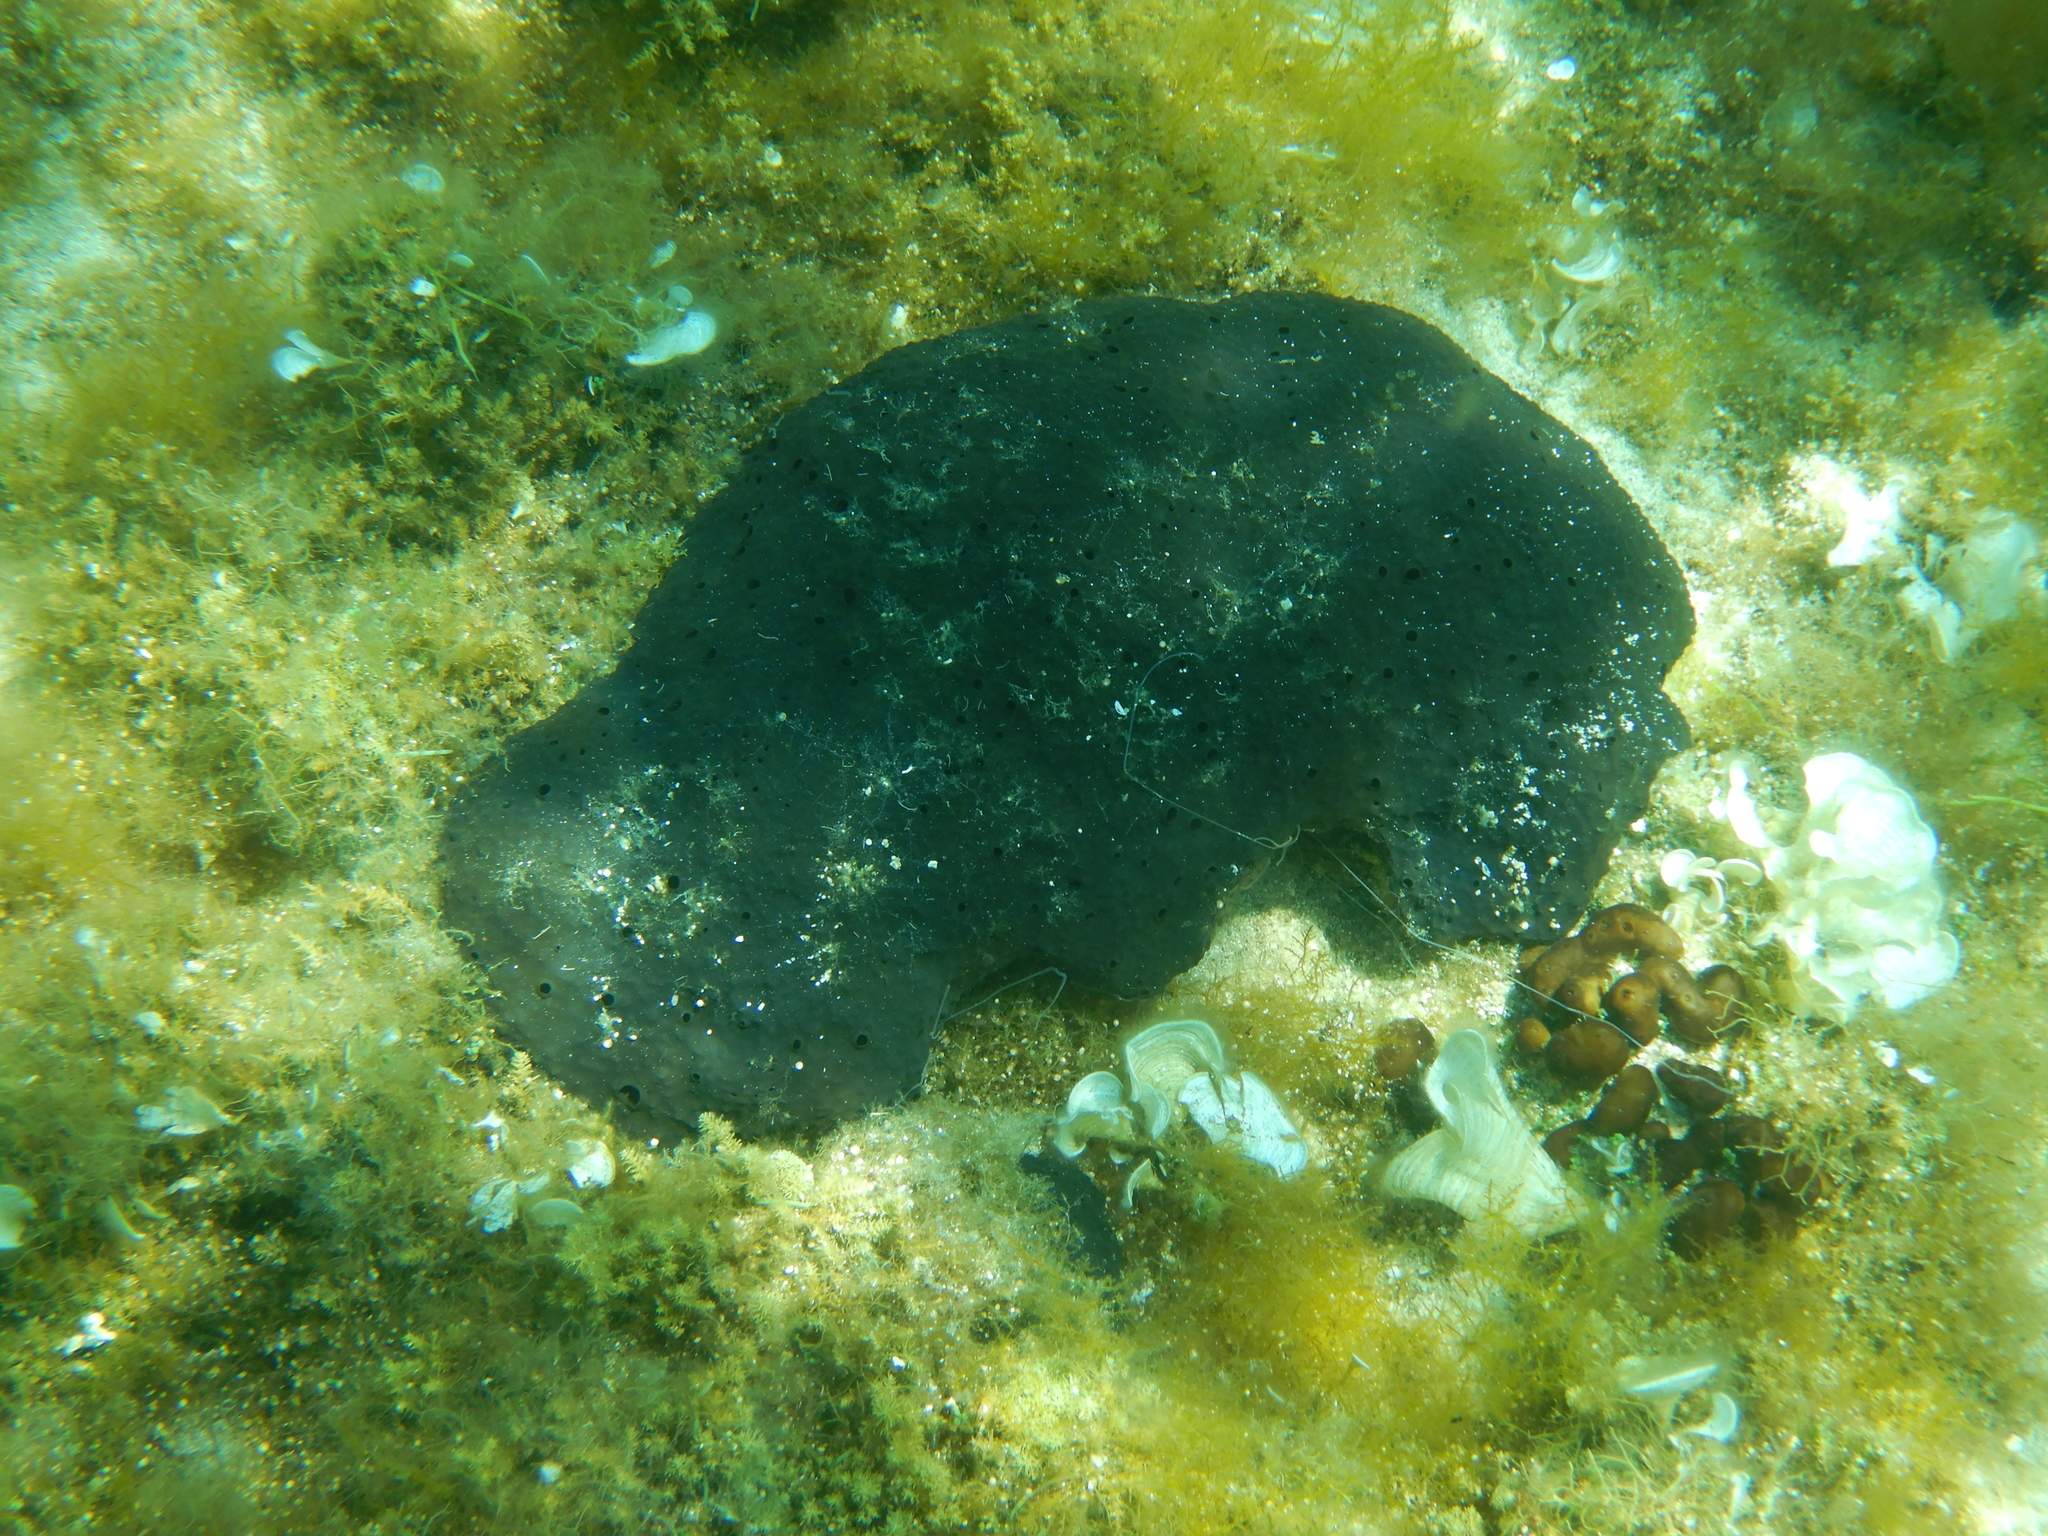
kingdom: Animalia
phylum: Porifera
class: Demospongiae
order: Dictyoceratida
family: Irciniidae
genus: Sarcotragus
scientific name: Sarcotragus spinosulus
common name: Black leather sponge
